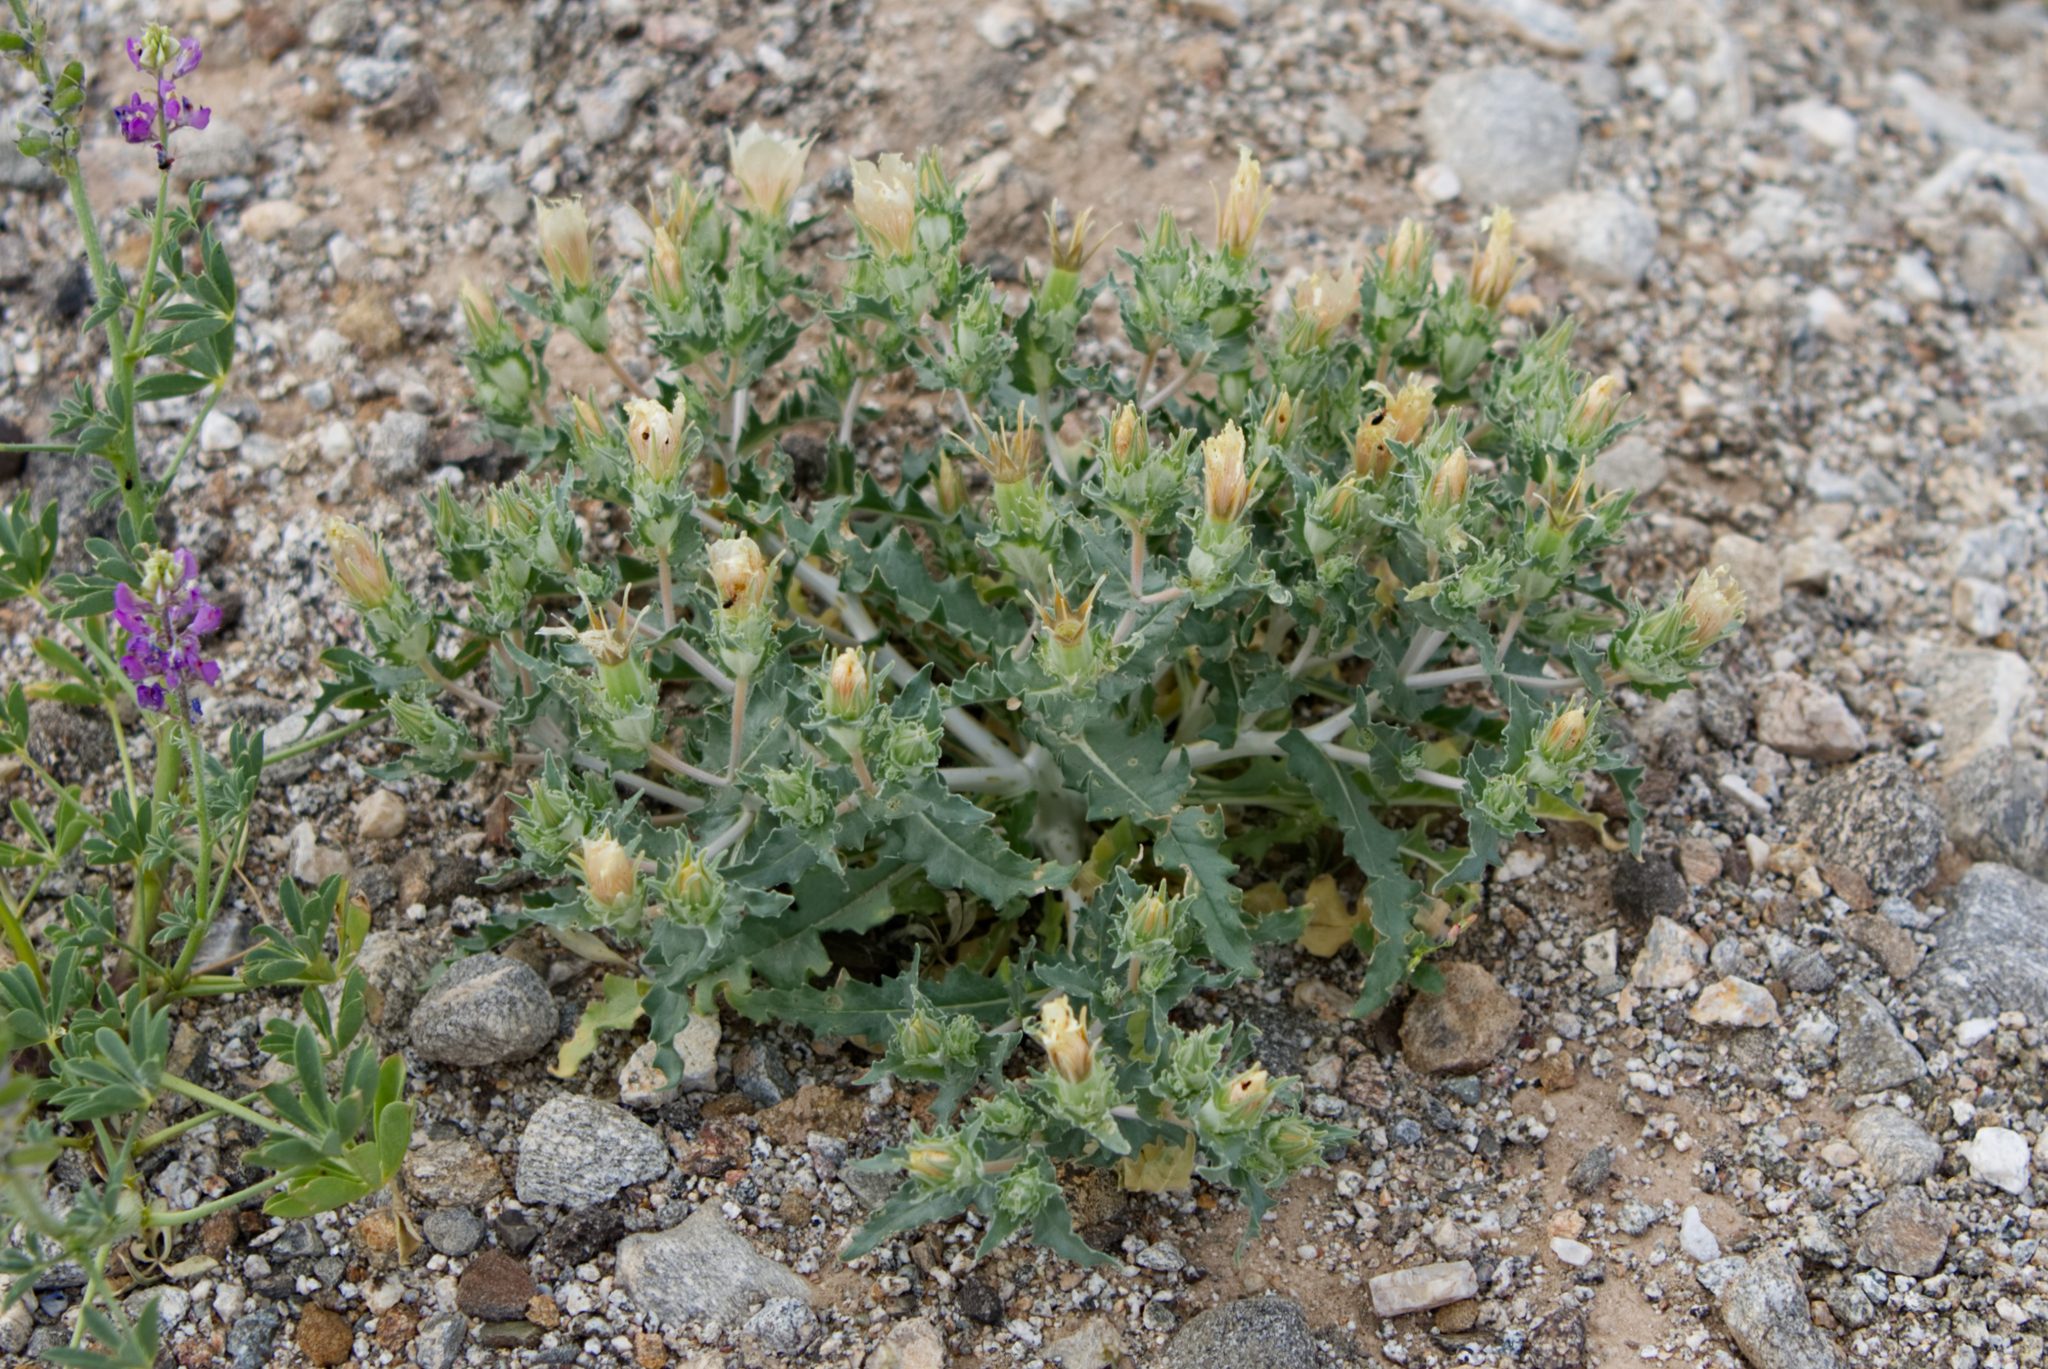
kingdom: Plantae
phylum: Tracheophyta
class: Magnoliopsida
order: Cornales
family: Loasaceae
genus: Mentzelia
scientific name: Mentzelia involucrata
